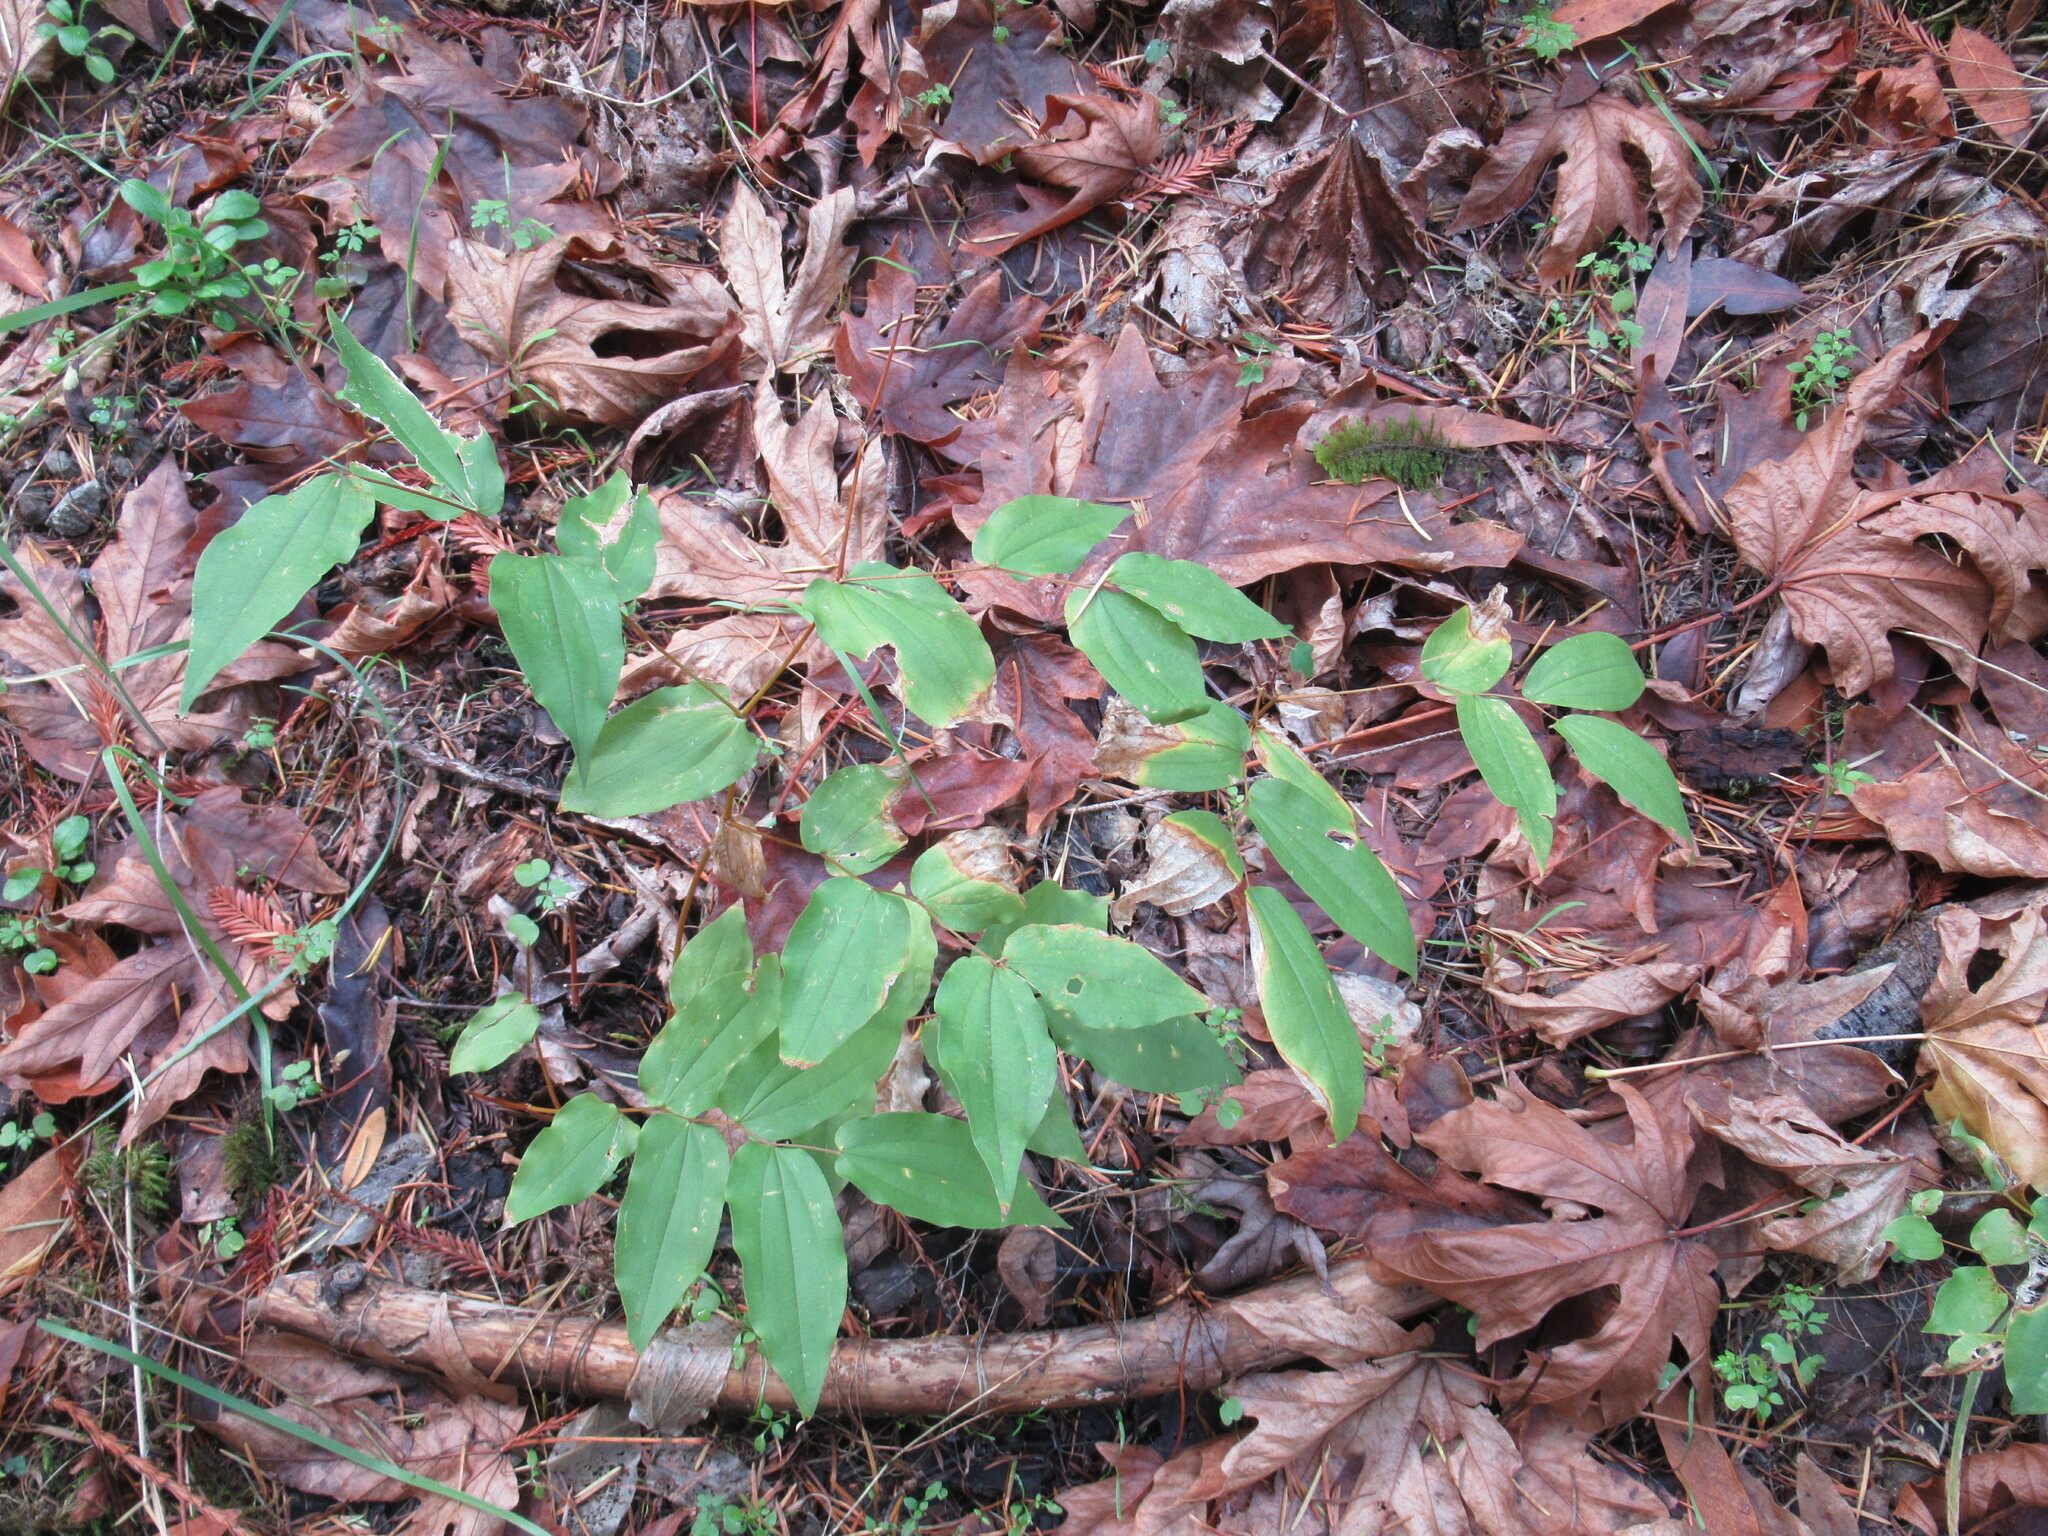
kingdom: Plantae
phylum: Tracheophyta
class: Liliopsida
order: Liliales
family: Liliaceae
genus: Prosartes
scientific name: Prosartes hookeri
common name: Fairy-bells
